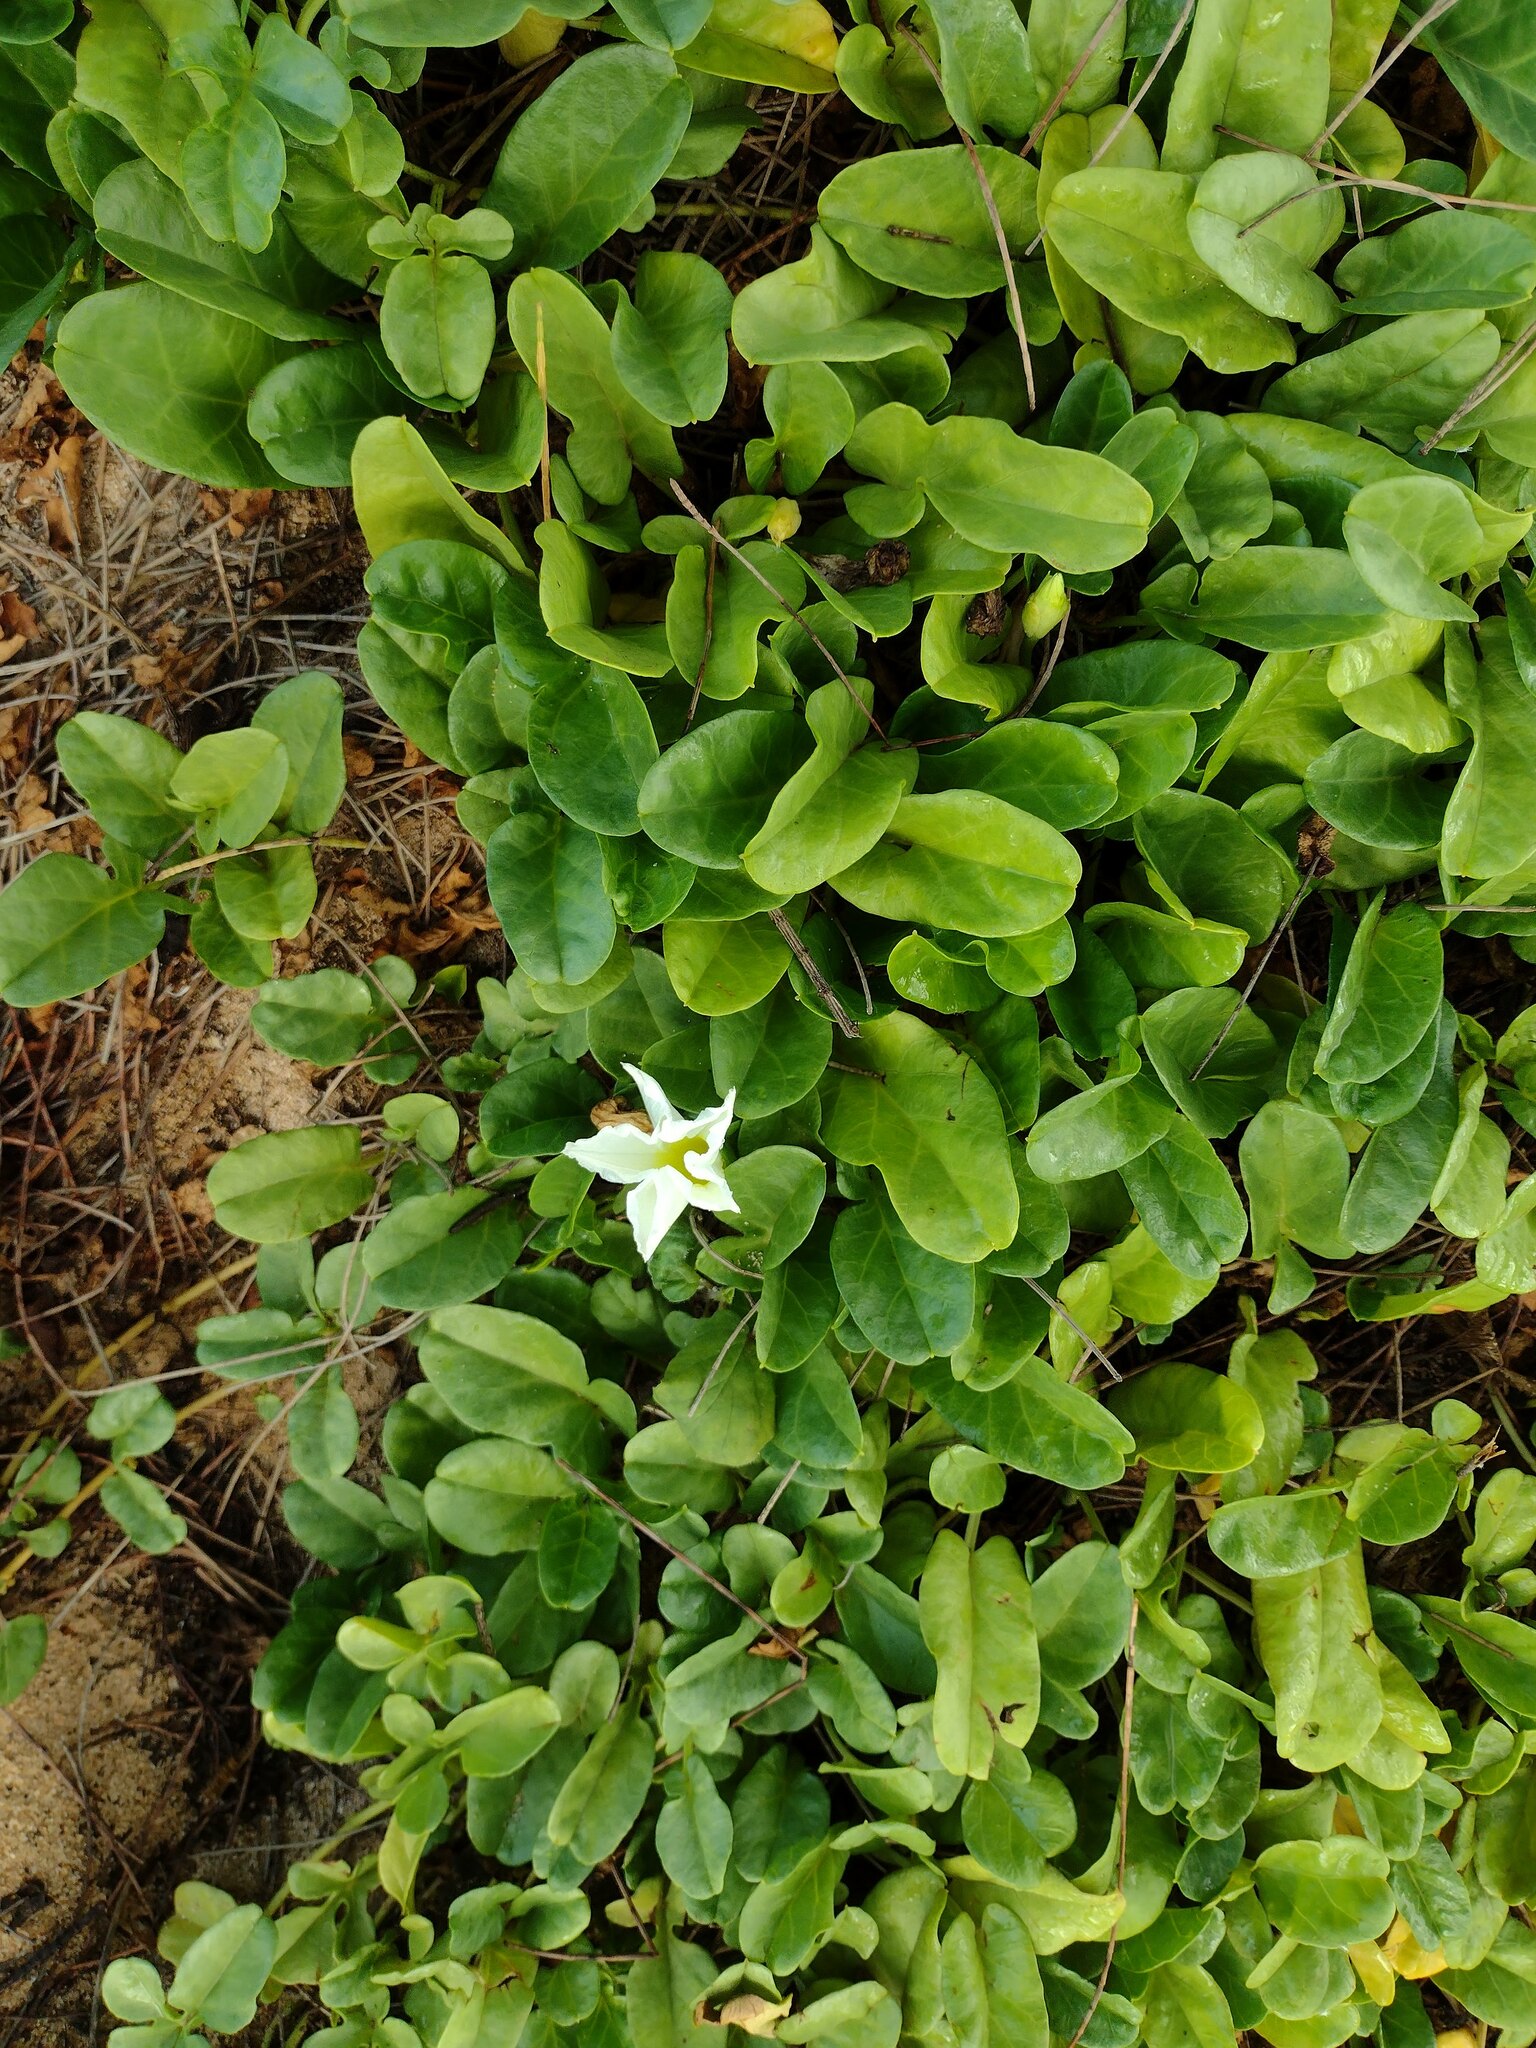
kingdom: Plantae
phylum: Tracheophyta
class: Magnoliopsida
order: Cucurbitales
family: Cucurbitaceae
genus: Coccinia
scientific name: Coccinia grandis
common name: Ivy gourd
